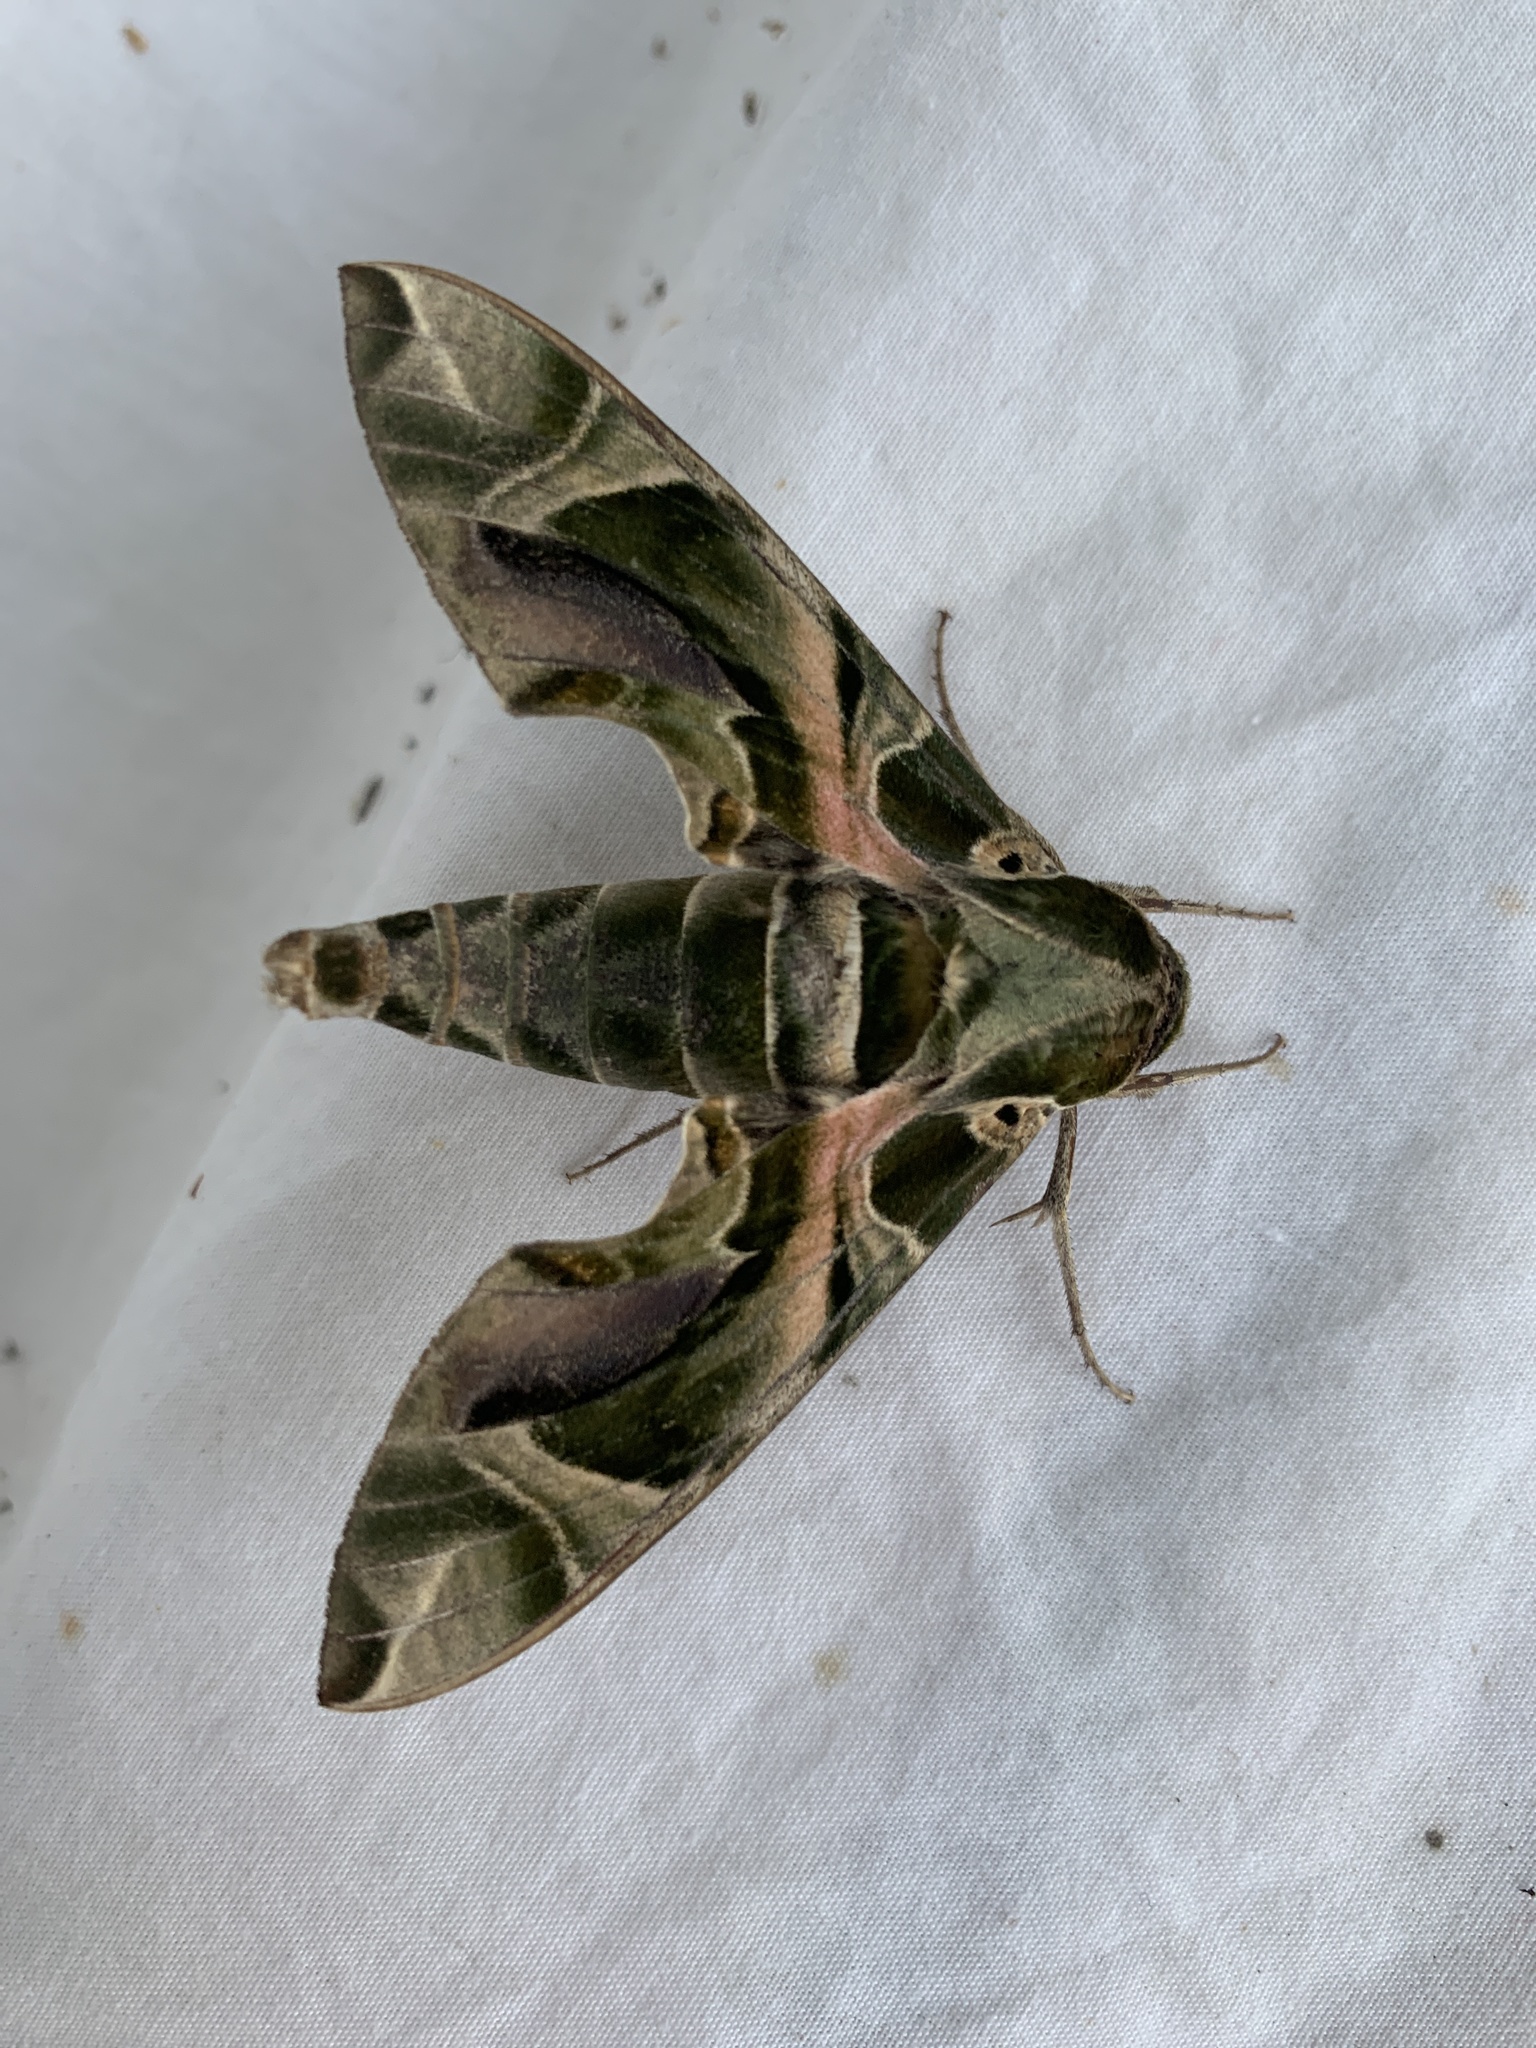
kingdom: Animalia
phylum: Arthropoda
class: Insecta
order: Lepidoptera
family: Sphingidae
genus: Daphnis
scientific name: Daphnis nerii
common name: Oleander hawk-moth
